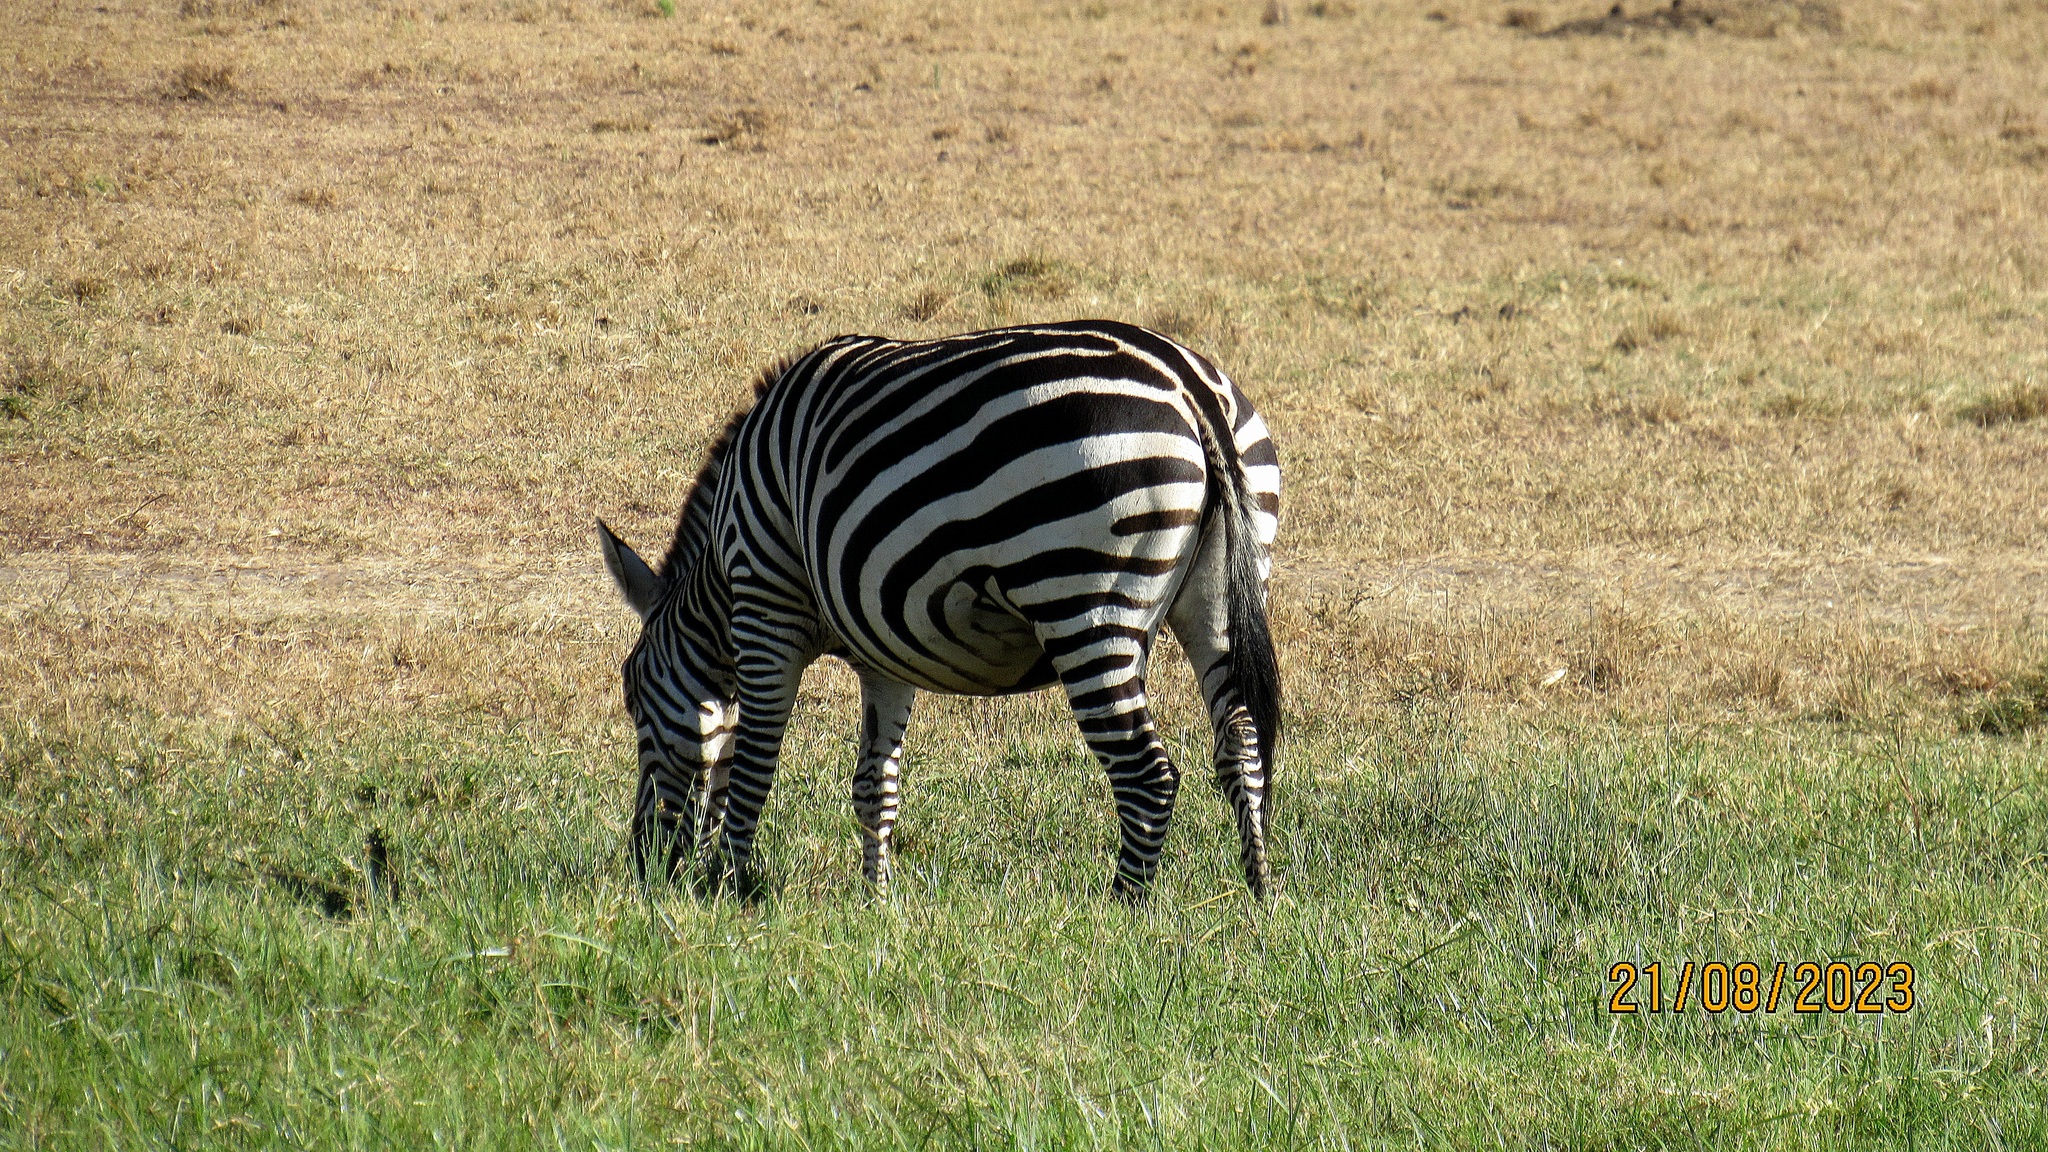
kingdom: Animalia
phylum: Chordata
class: Mammalia
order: Perissodactyla
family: Equidae
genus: Equus
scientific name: Equus quagga
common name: Plains zebra
